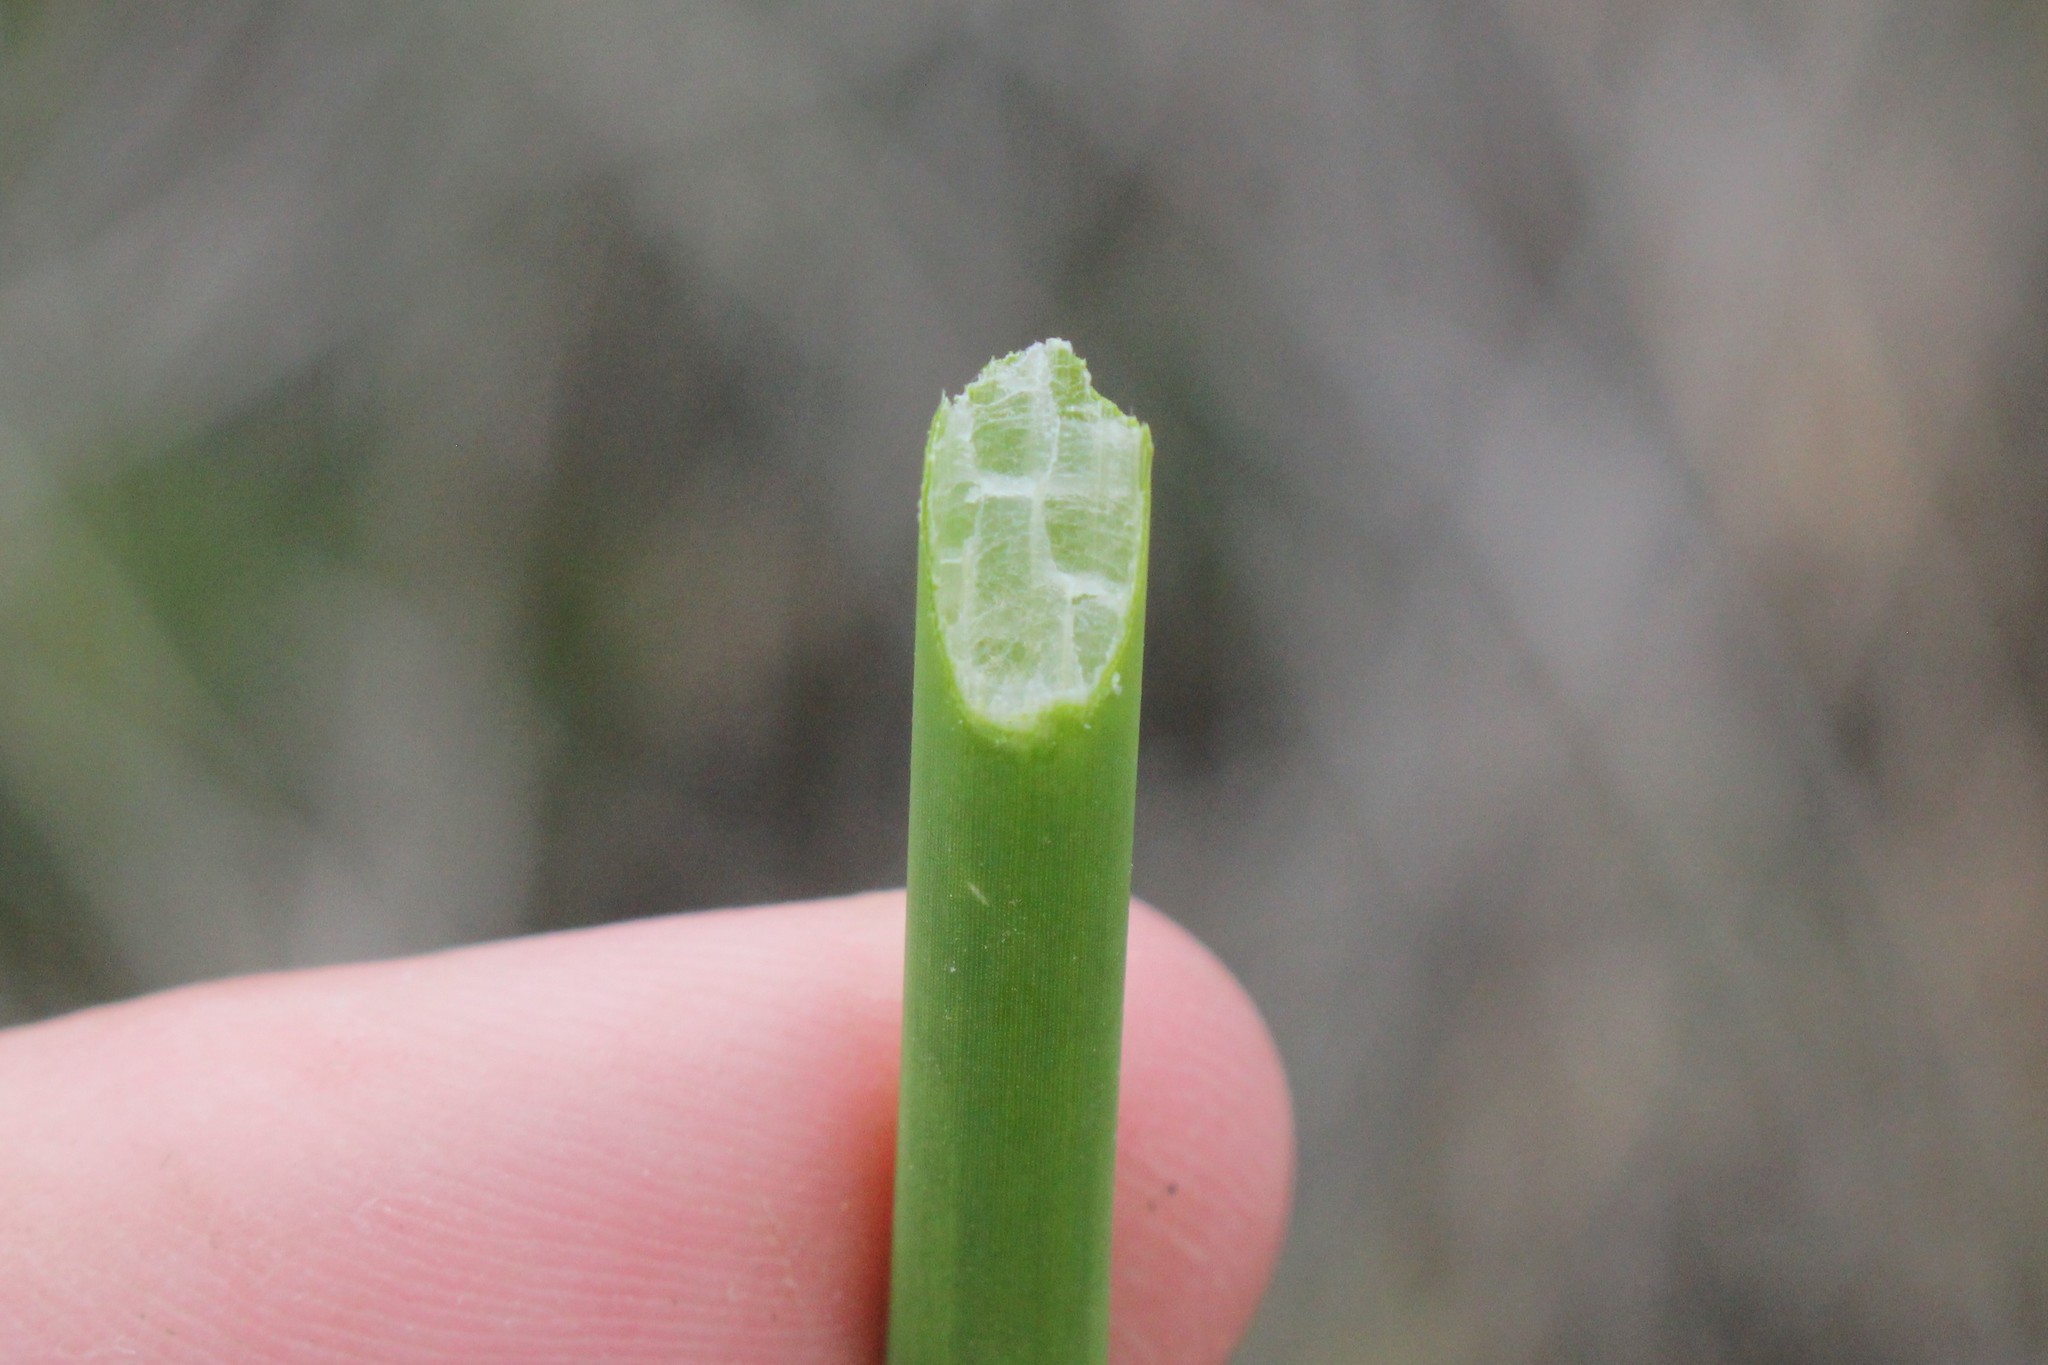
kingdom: Plantae
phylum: Tracheophyta
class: Liliopsida
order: Poales
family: Cyperaceae
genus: Schoenoplectus
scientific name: Schoenoplectus tabernaemontani
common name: Grey club-rush
